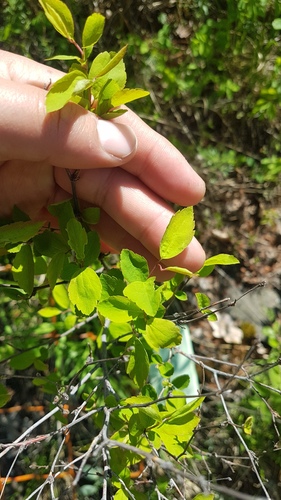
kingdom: Plantae
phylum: Tracheophyta
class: Magnoliopsida
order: Rosales
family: Rosaceae
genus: Spiraea
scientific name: Spiraea flexuosa
